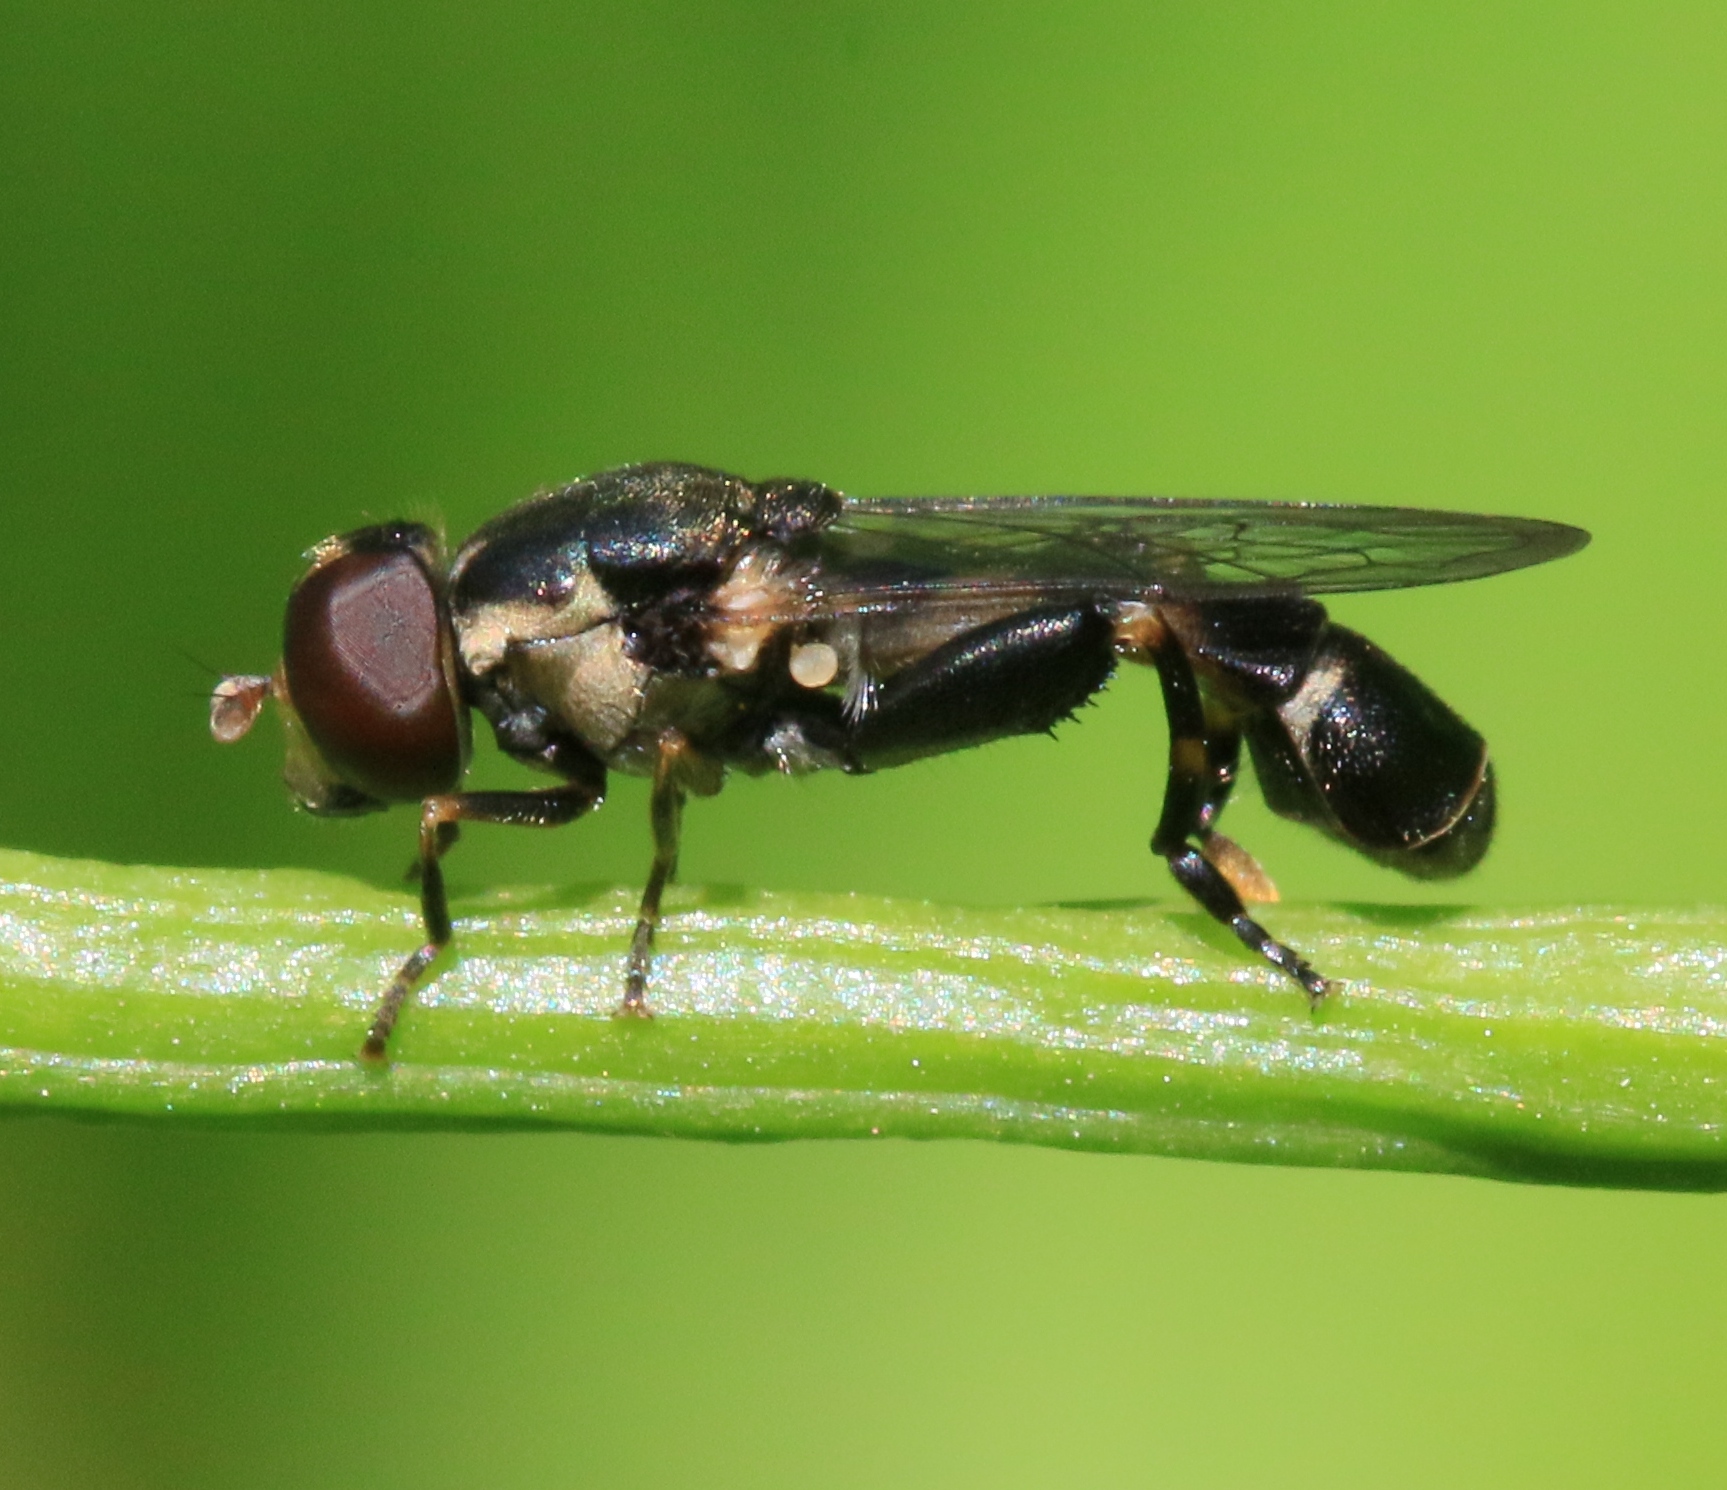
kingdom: Animalia
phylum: Arthropoda
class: Insecta
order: Diptera
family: Syrphidae
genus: Syritta
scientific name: Syritta pipiens
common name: Hover fly
